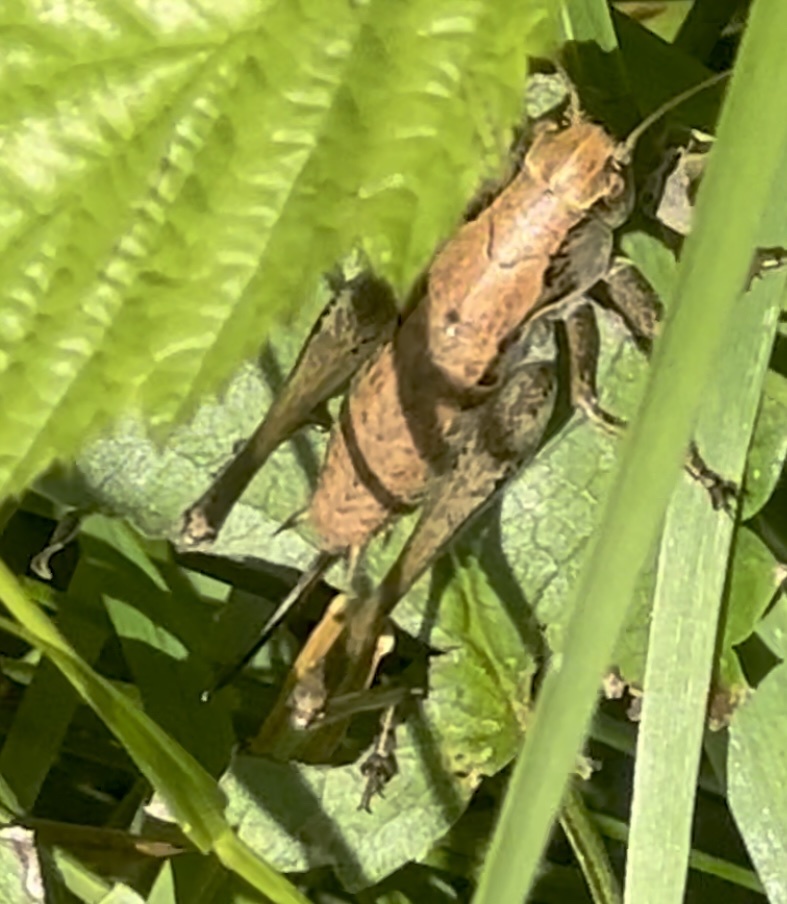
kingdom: Animalia
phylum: Arthropoda
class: Insecta
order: Orthoptera
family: Tettigoniidae
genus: Pholidoptera
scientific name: Pholidoptera griseoaptera
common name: Dark bush-cricket
